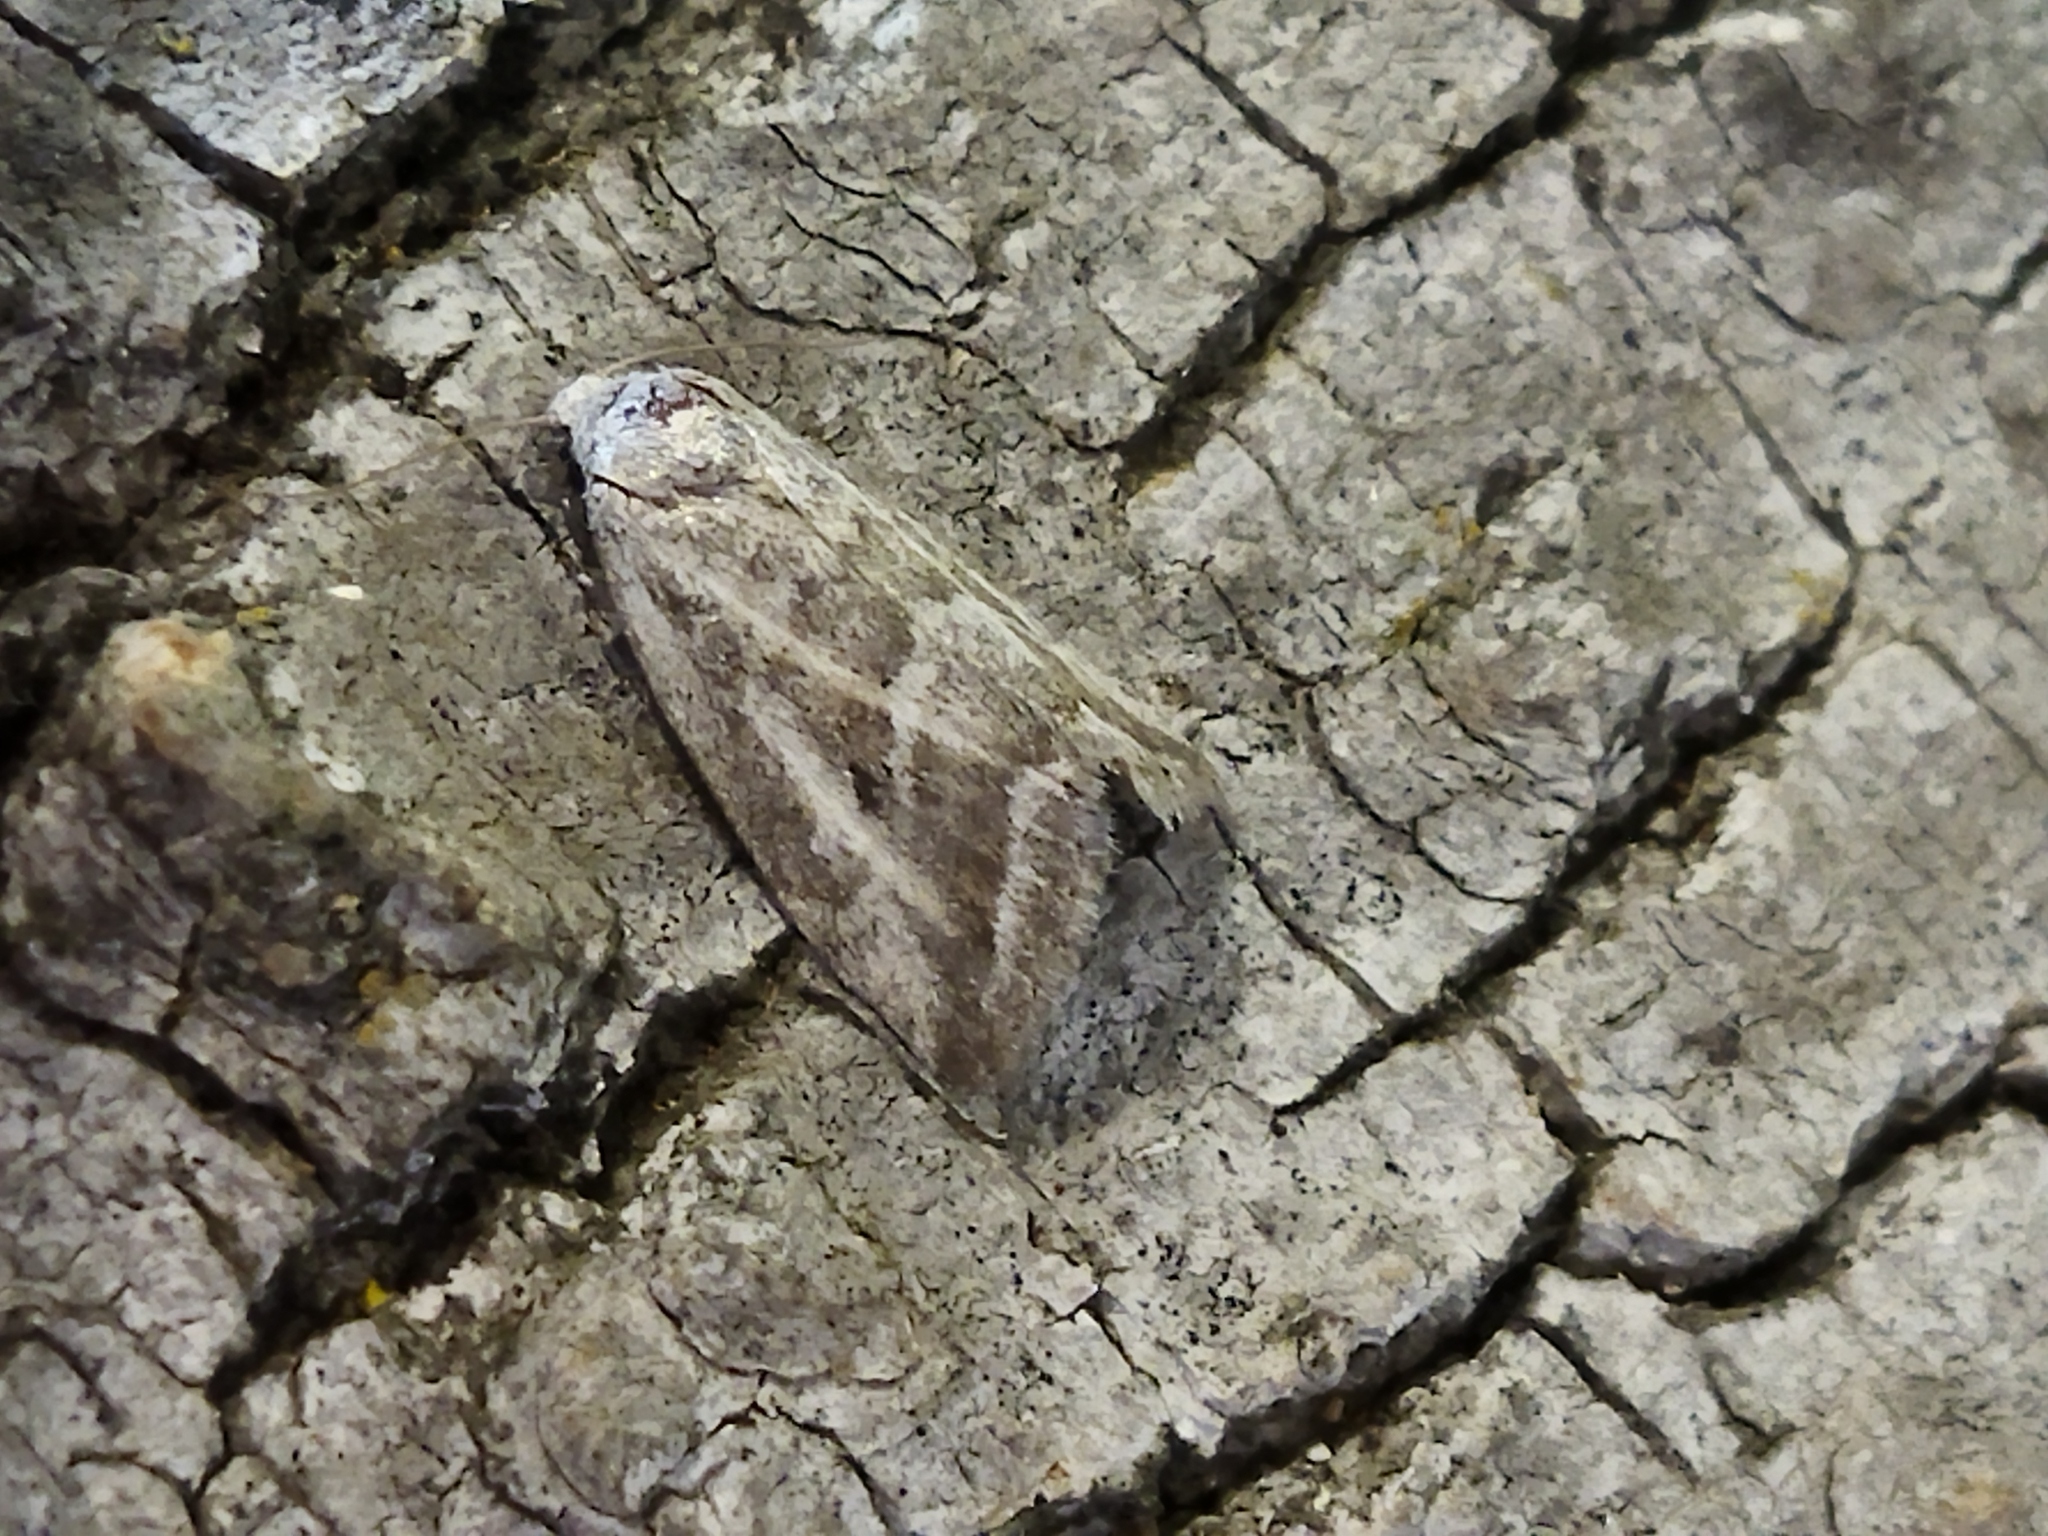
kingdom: Animalia
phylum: Arthropoda
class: Insecta
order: Lepidoptera
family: Noctuidae
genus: Phyllophila
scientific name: Phyllophila obliterata
